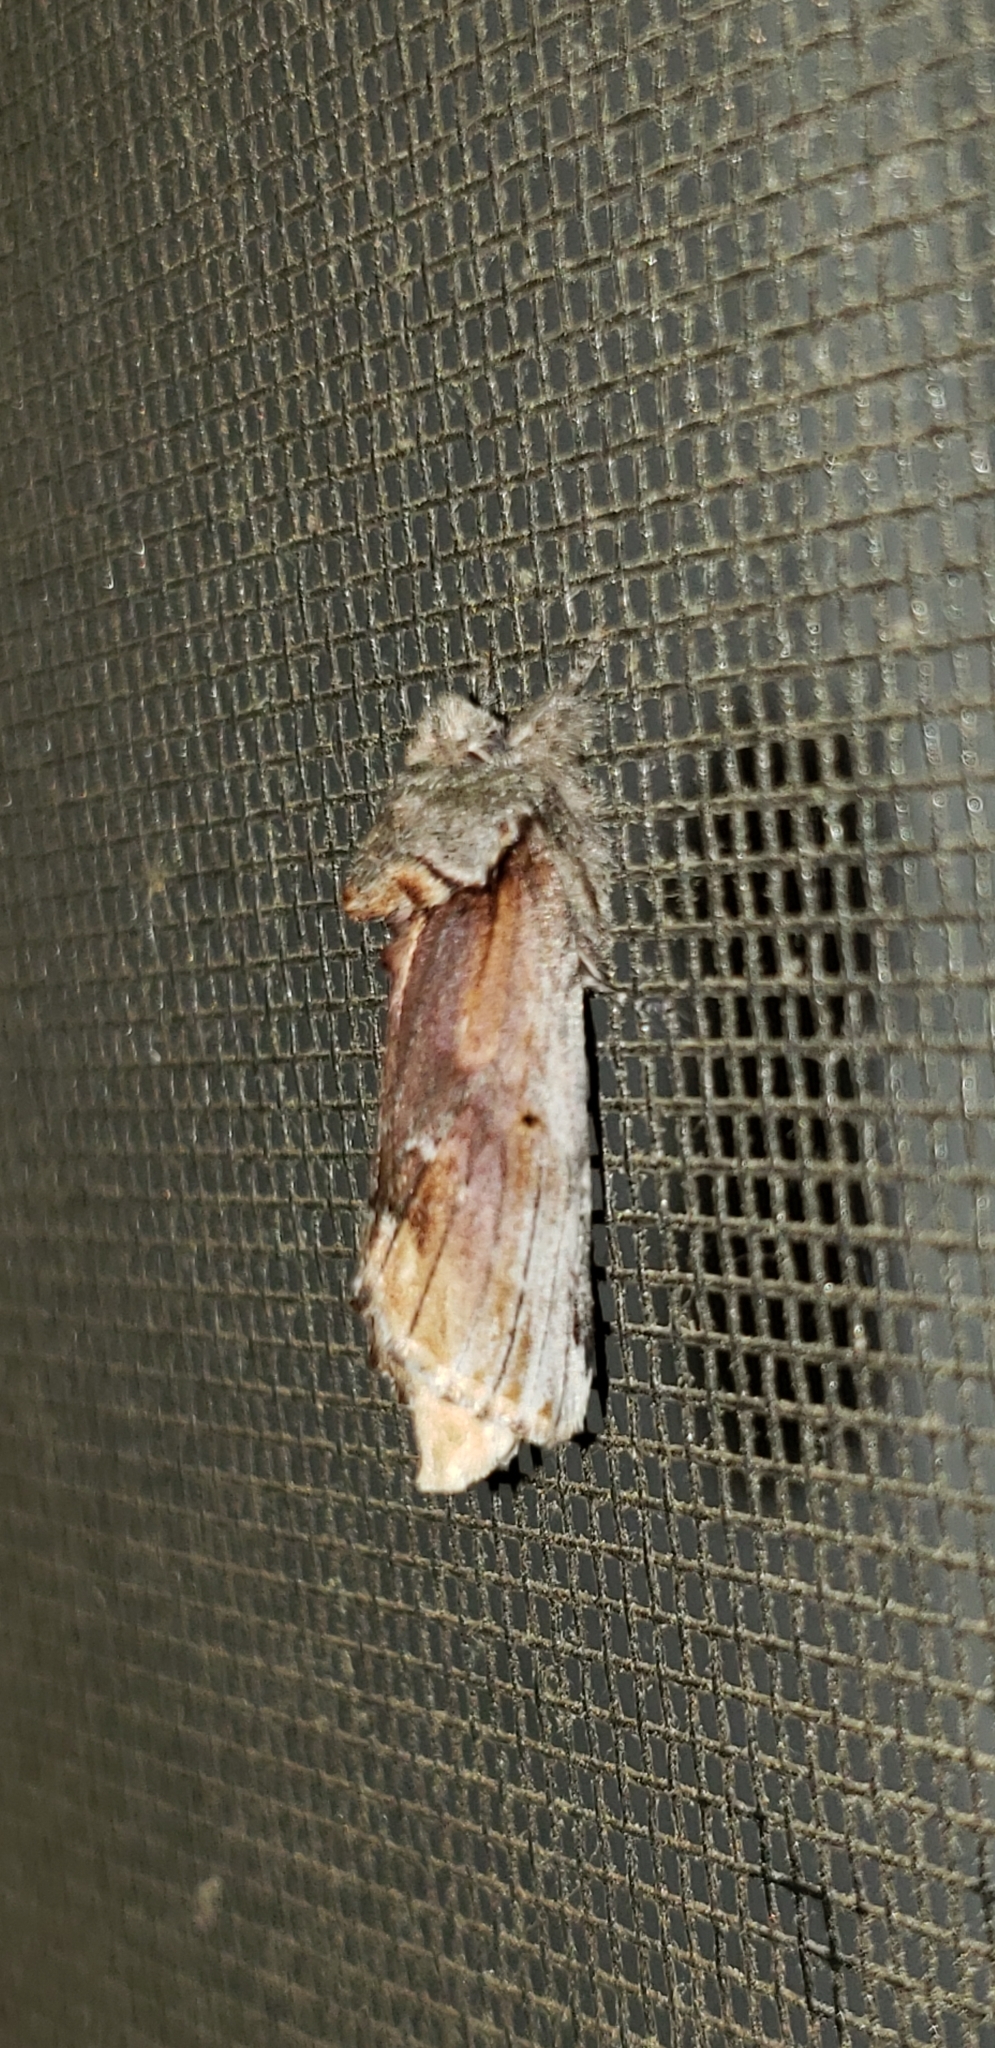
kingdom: Animalia
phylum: Arthropoda
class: Insecta
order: Lepidoptera
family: Notodontidae
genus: Schizura
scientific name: Schizura
